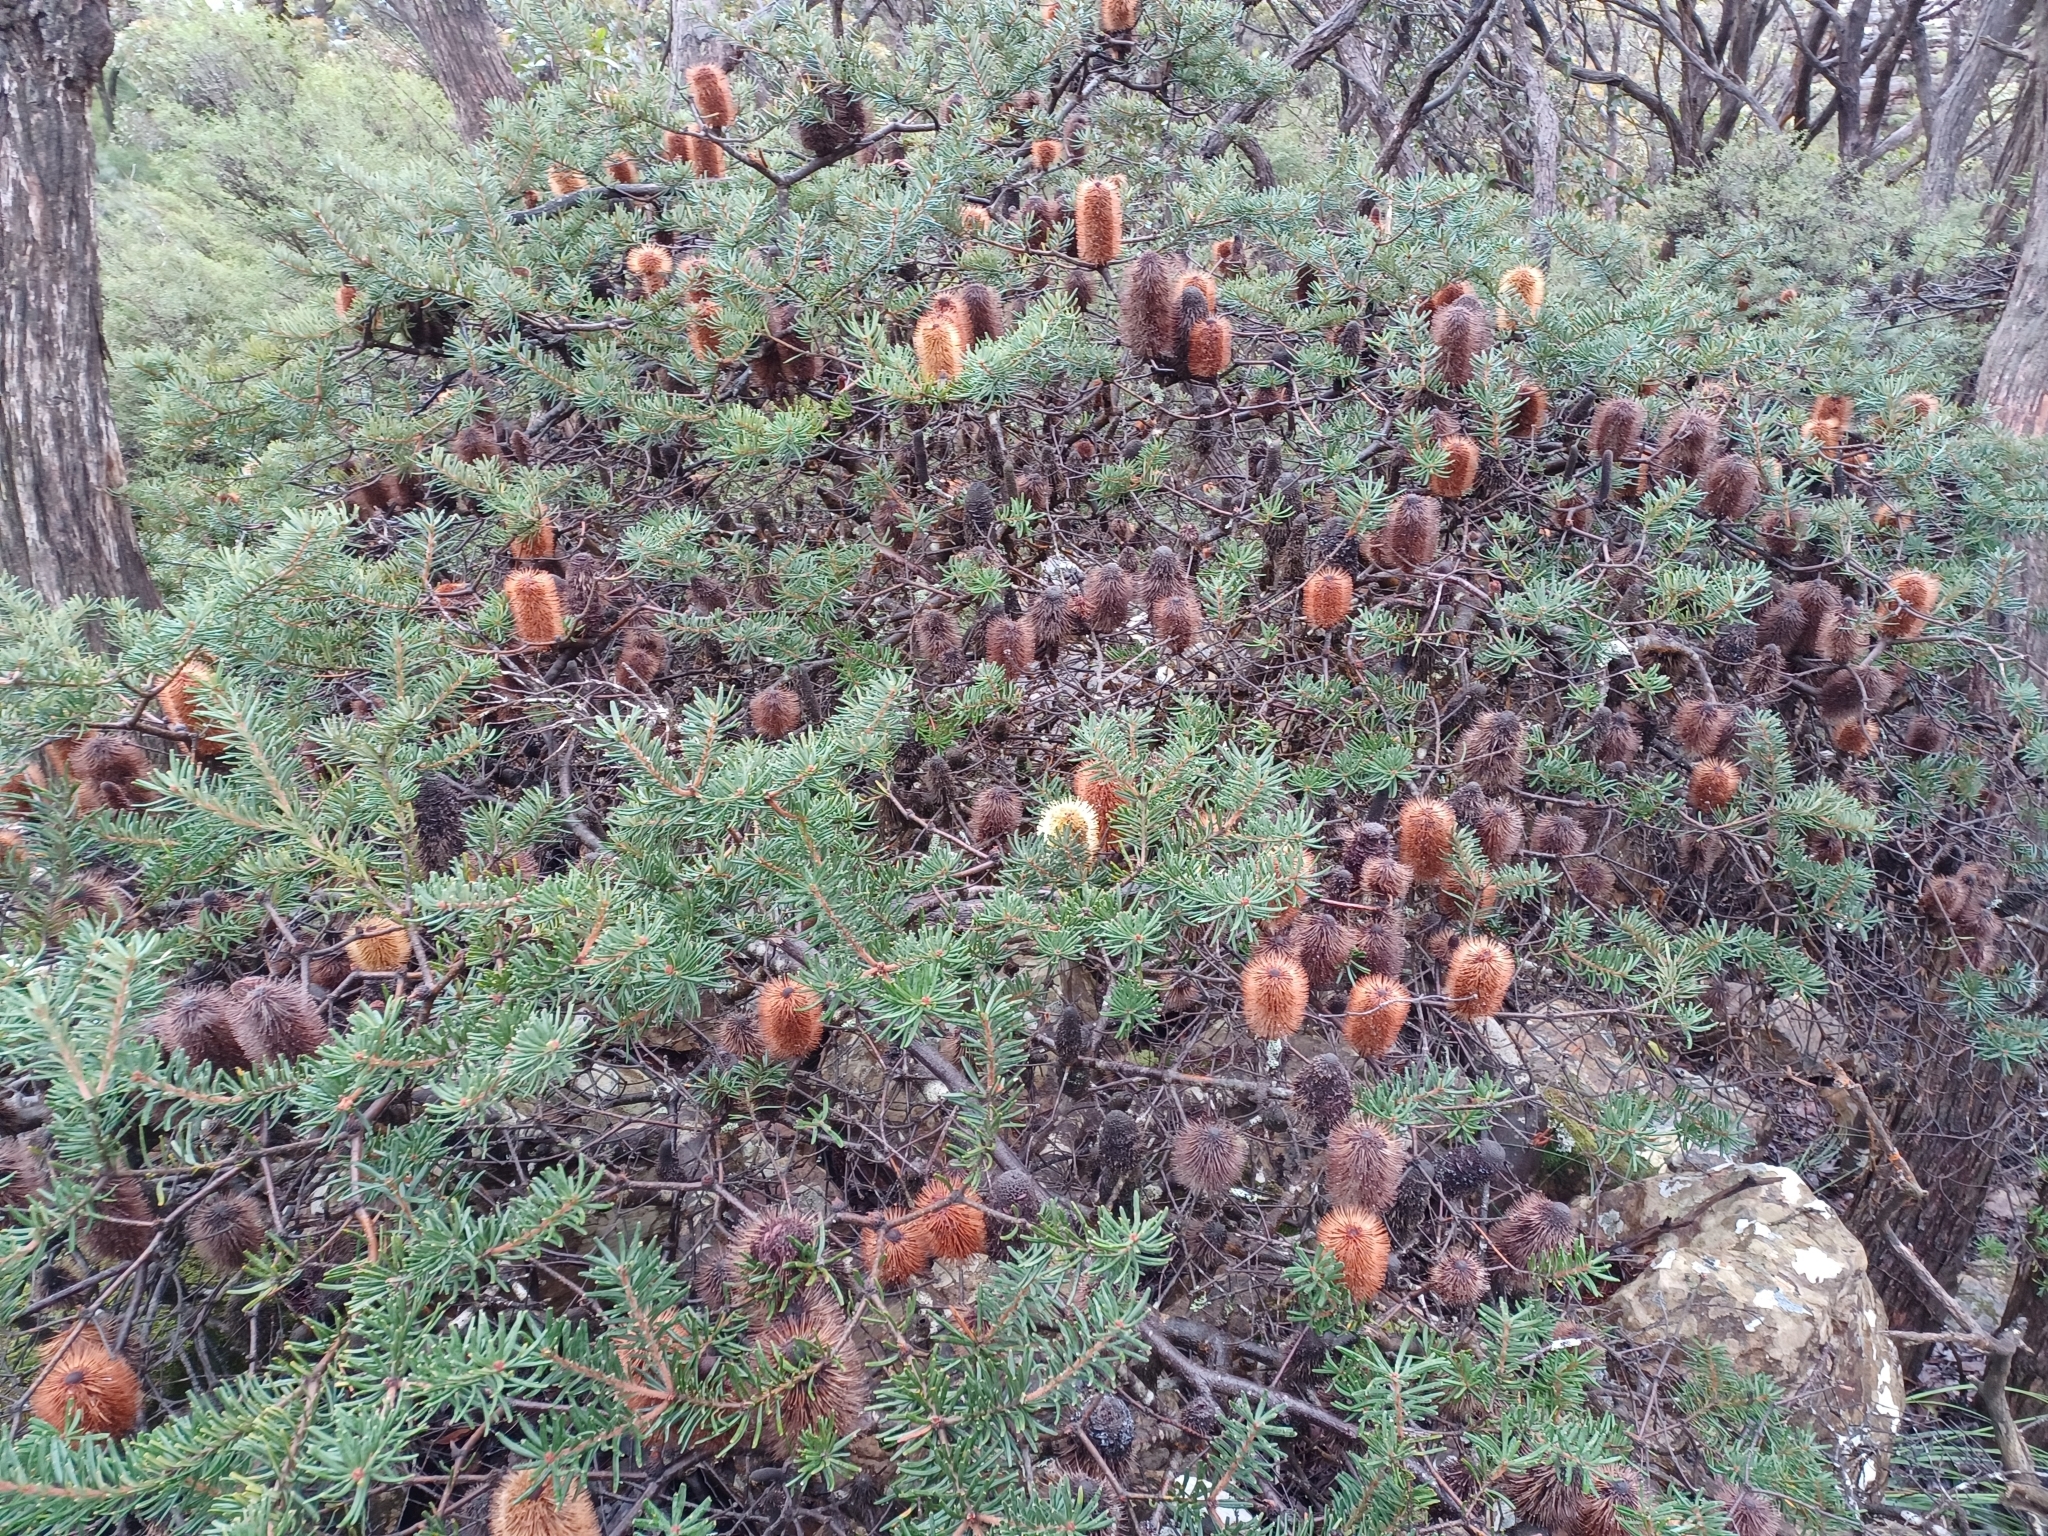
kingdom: Plantae
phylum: Tracheophyta
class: Magnoliopsida
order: Proteales
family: Proteaceae
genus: Banksia
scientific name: Banksia marginata
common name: Silver banksia
